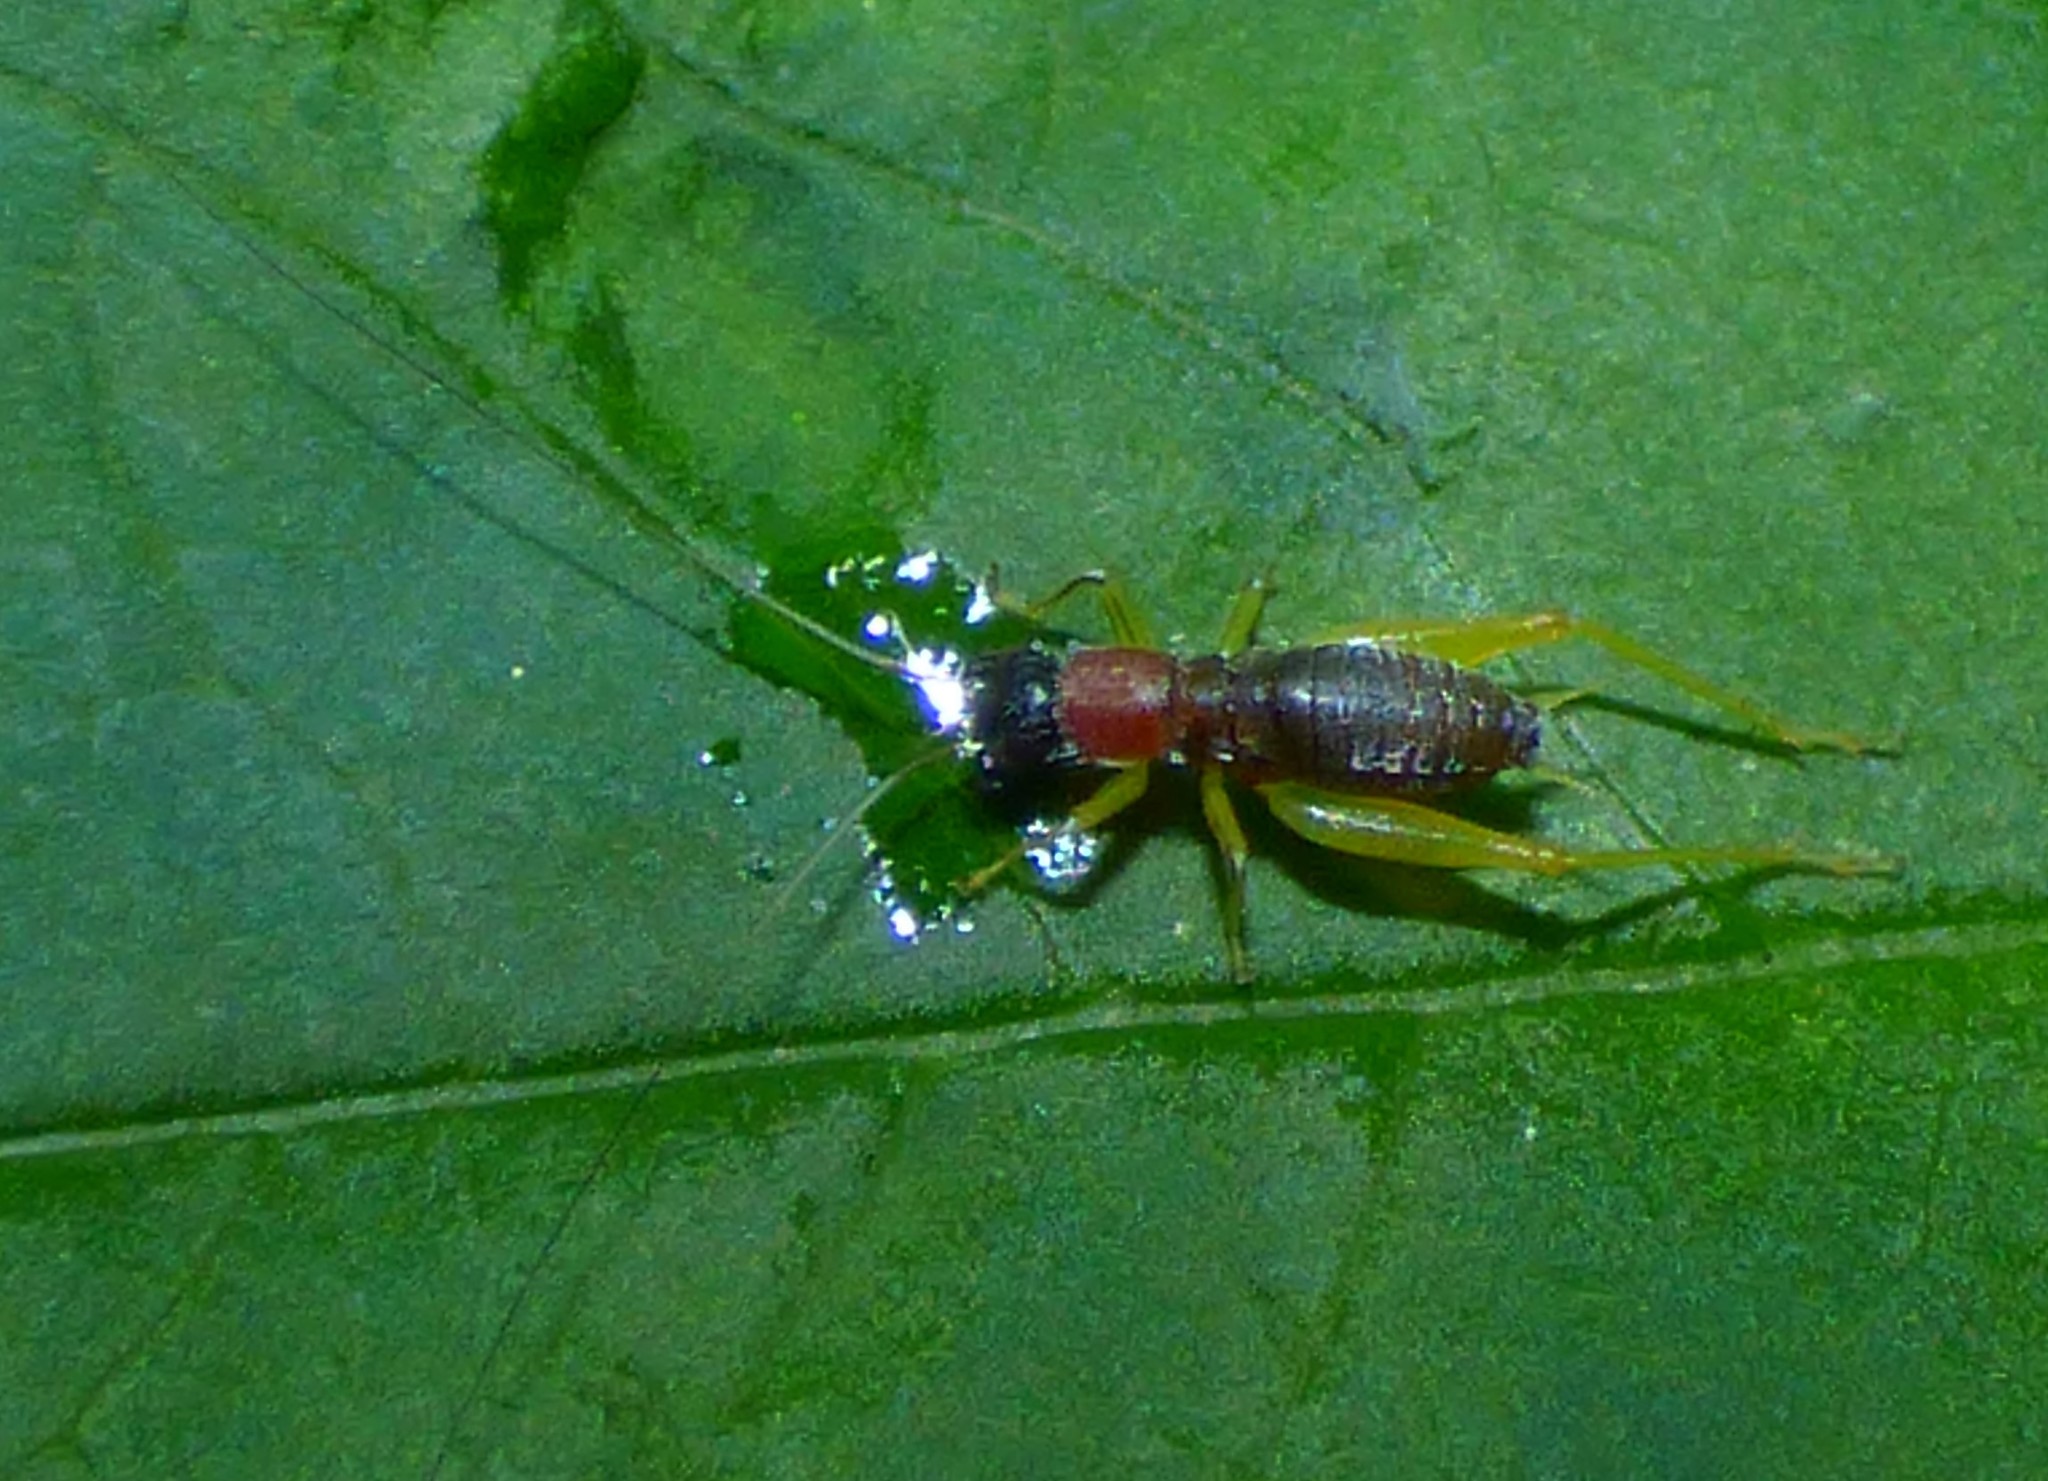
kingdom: Animalia
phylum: Arthropoda
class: Insecta
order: Orthoptera
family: Trigonidiidae
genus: Phyllopalpus
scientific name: Phyllopalpus pulchellus
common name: Handsome trig
